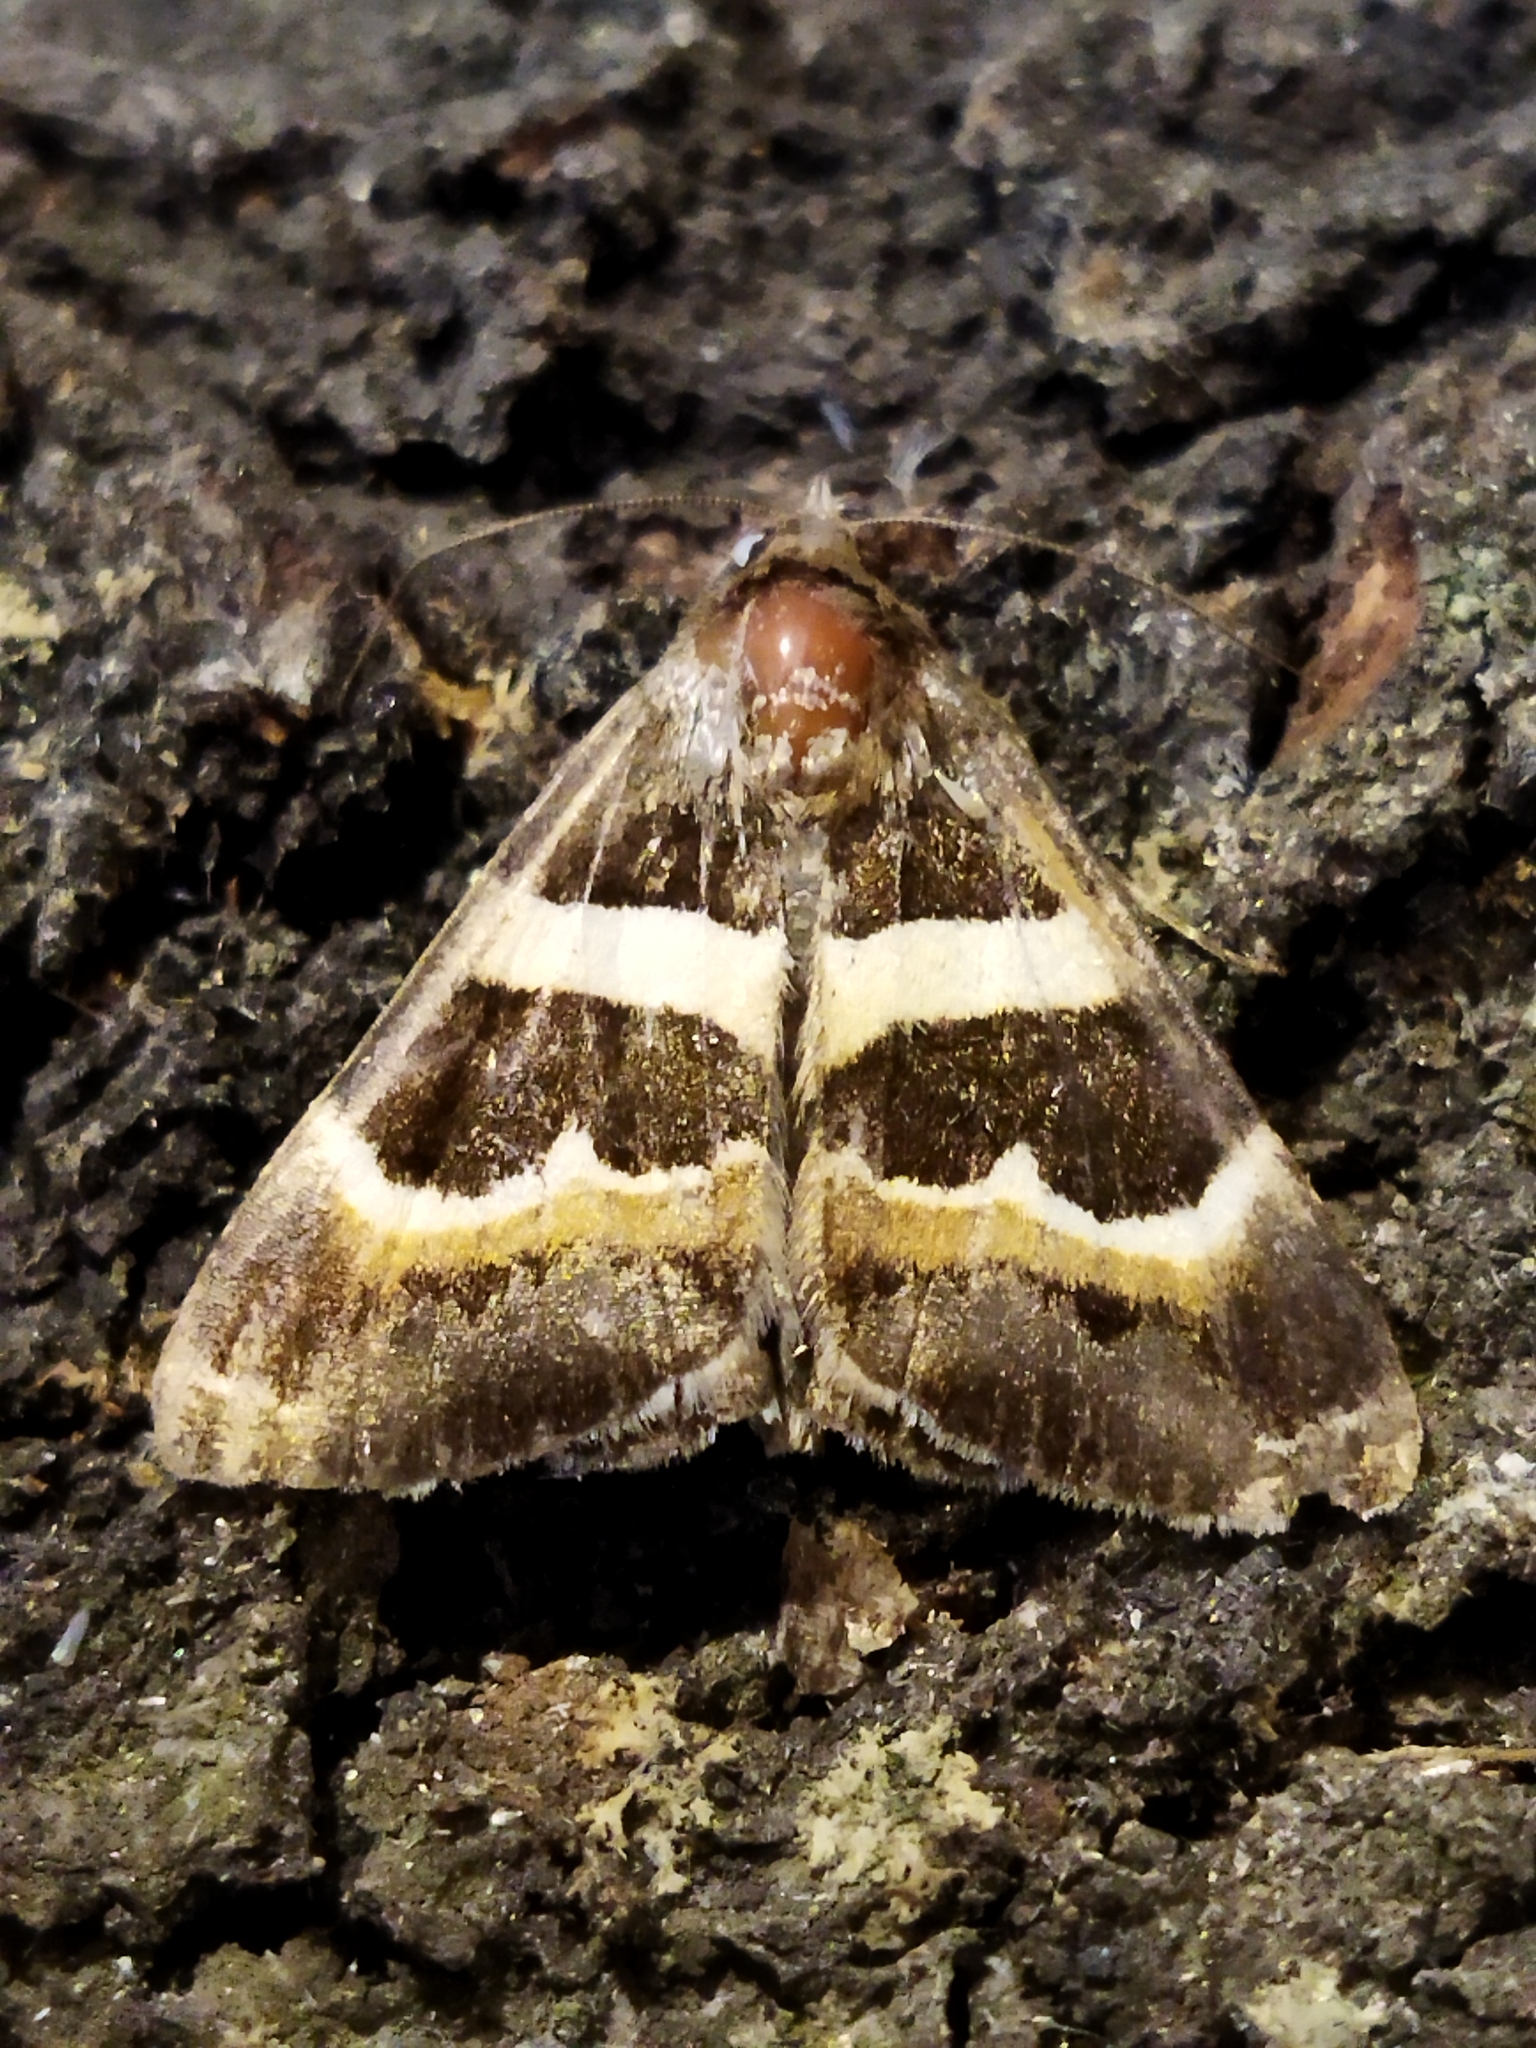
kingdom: Animalia
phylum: Arthropoda
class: Insecta
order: Lepidoptera
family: Erebidae
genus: Grammodes
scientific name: Grammodes stolida
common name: Geometrician
